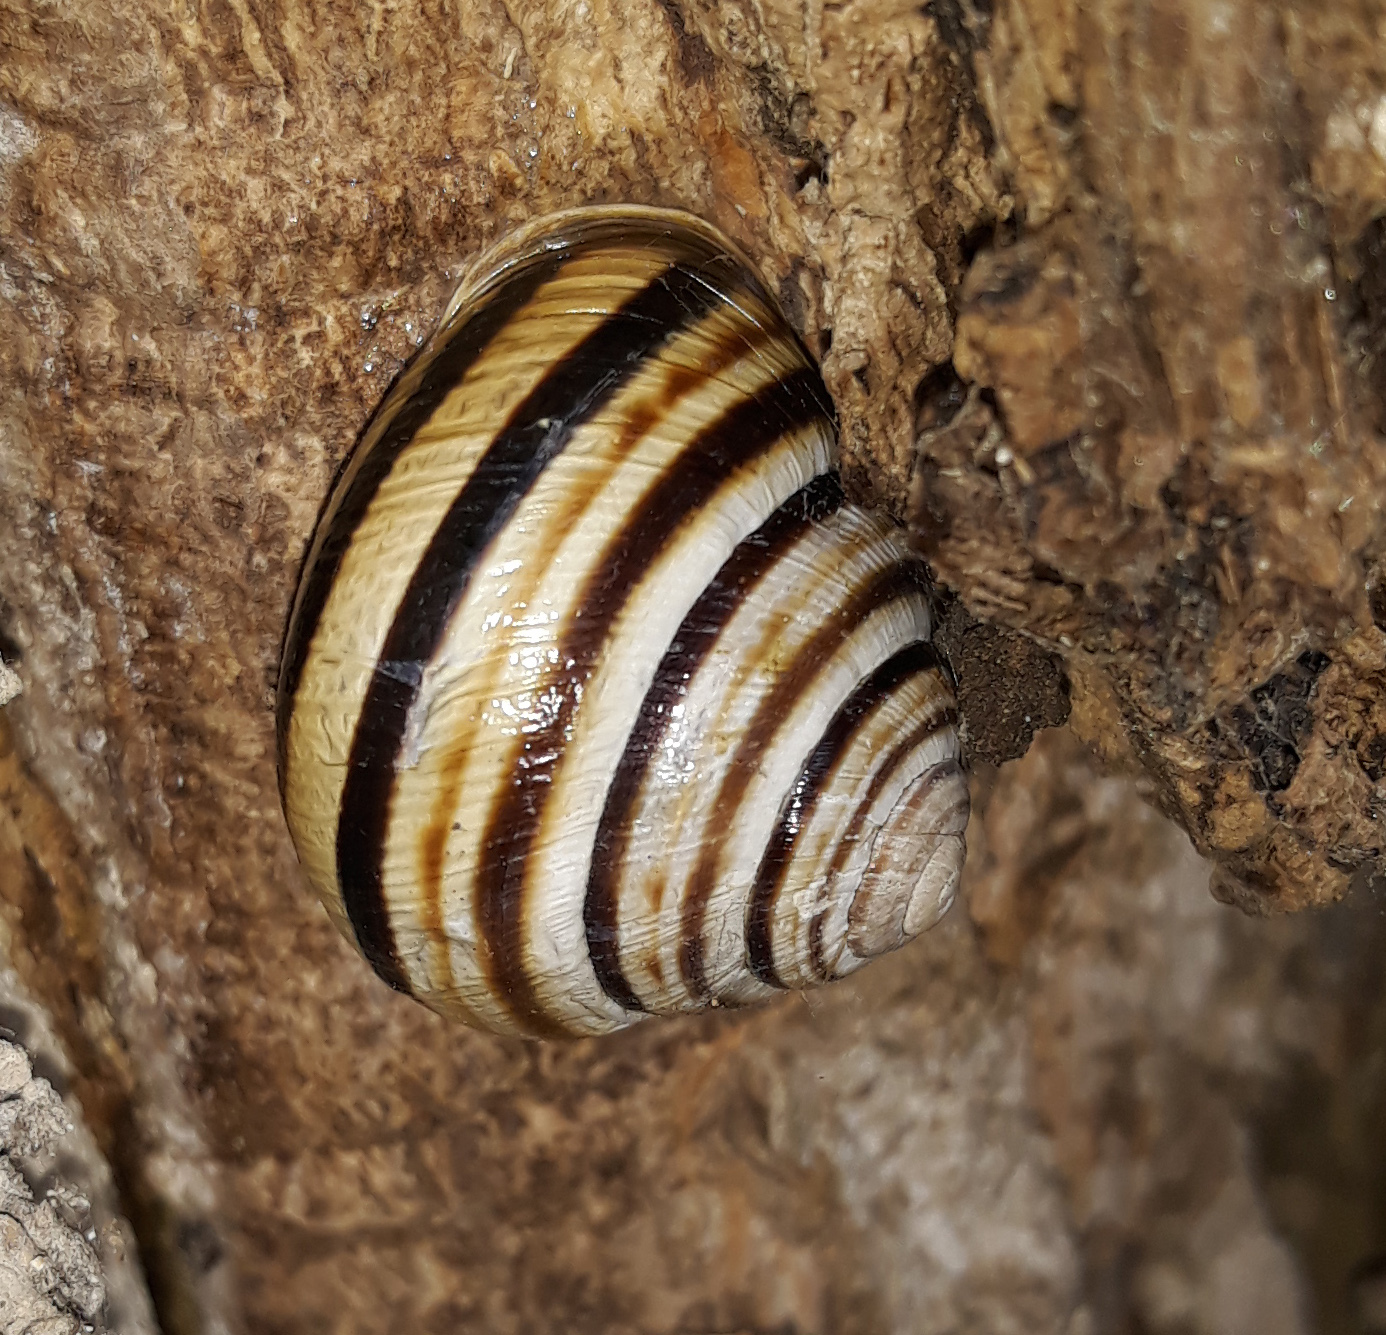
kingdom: Animalia
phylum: Mollusca
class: Gastropoda
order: Stylommatophora
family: Helicidae
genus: Caucasotachea
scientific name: Caucasotachea vindobonensis
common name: European helicid land snail
